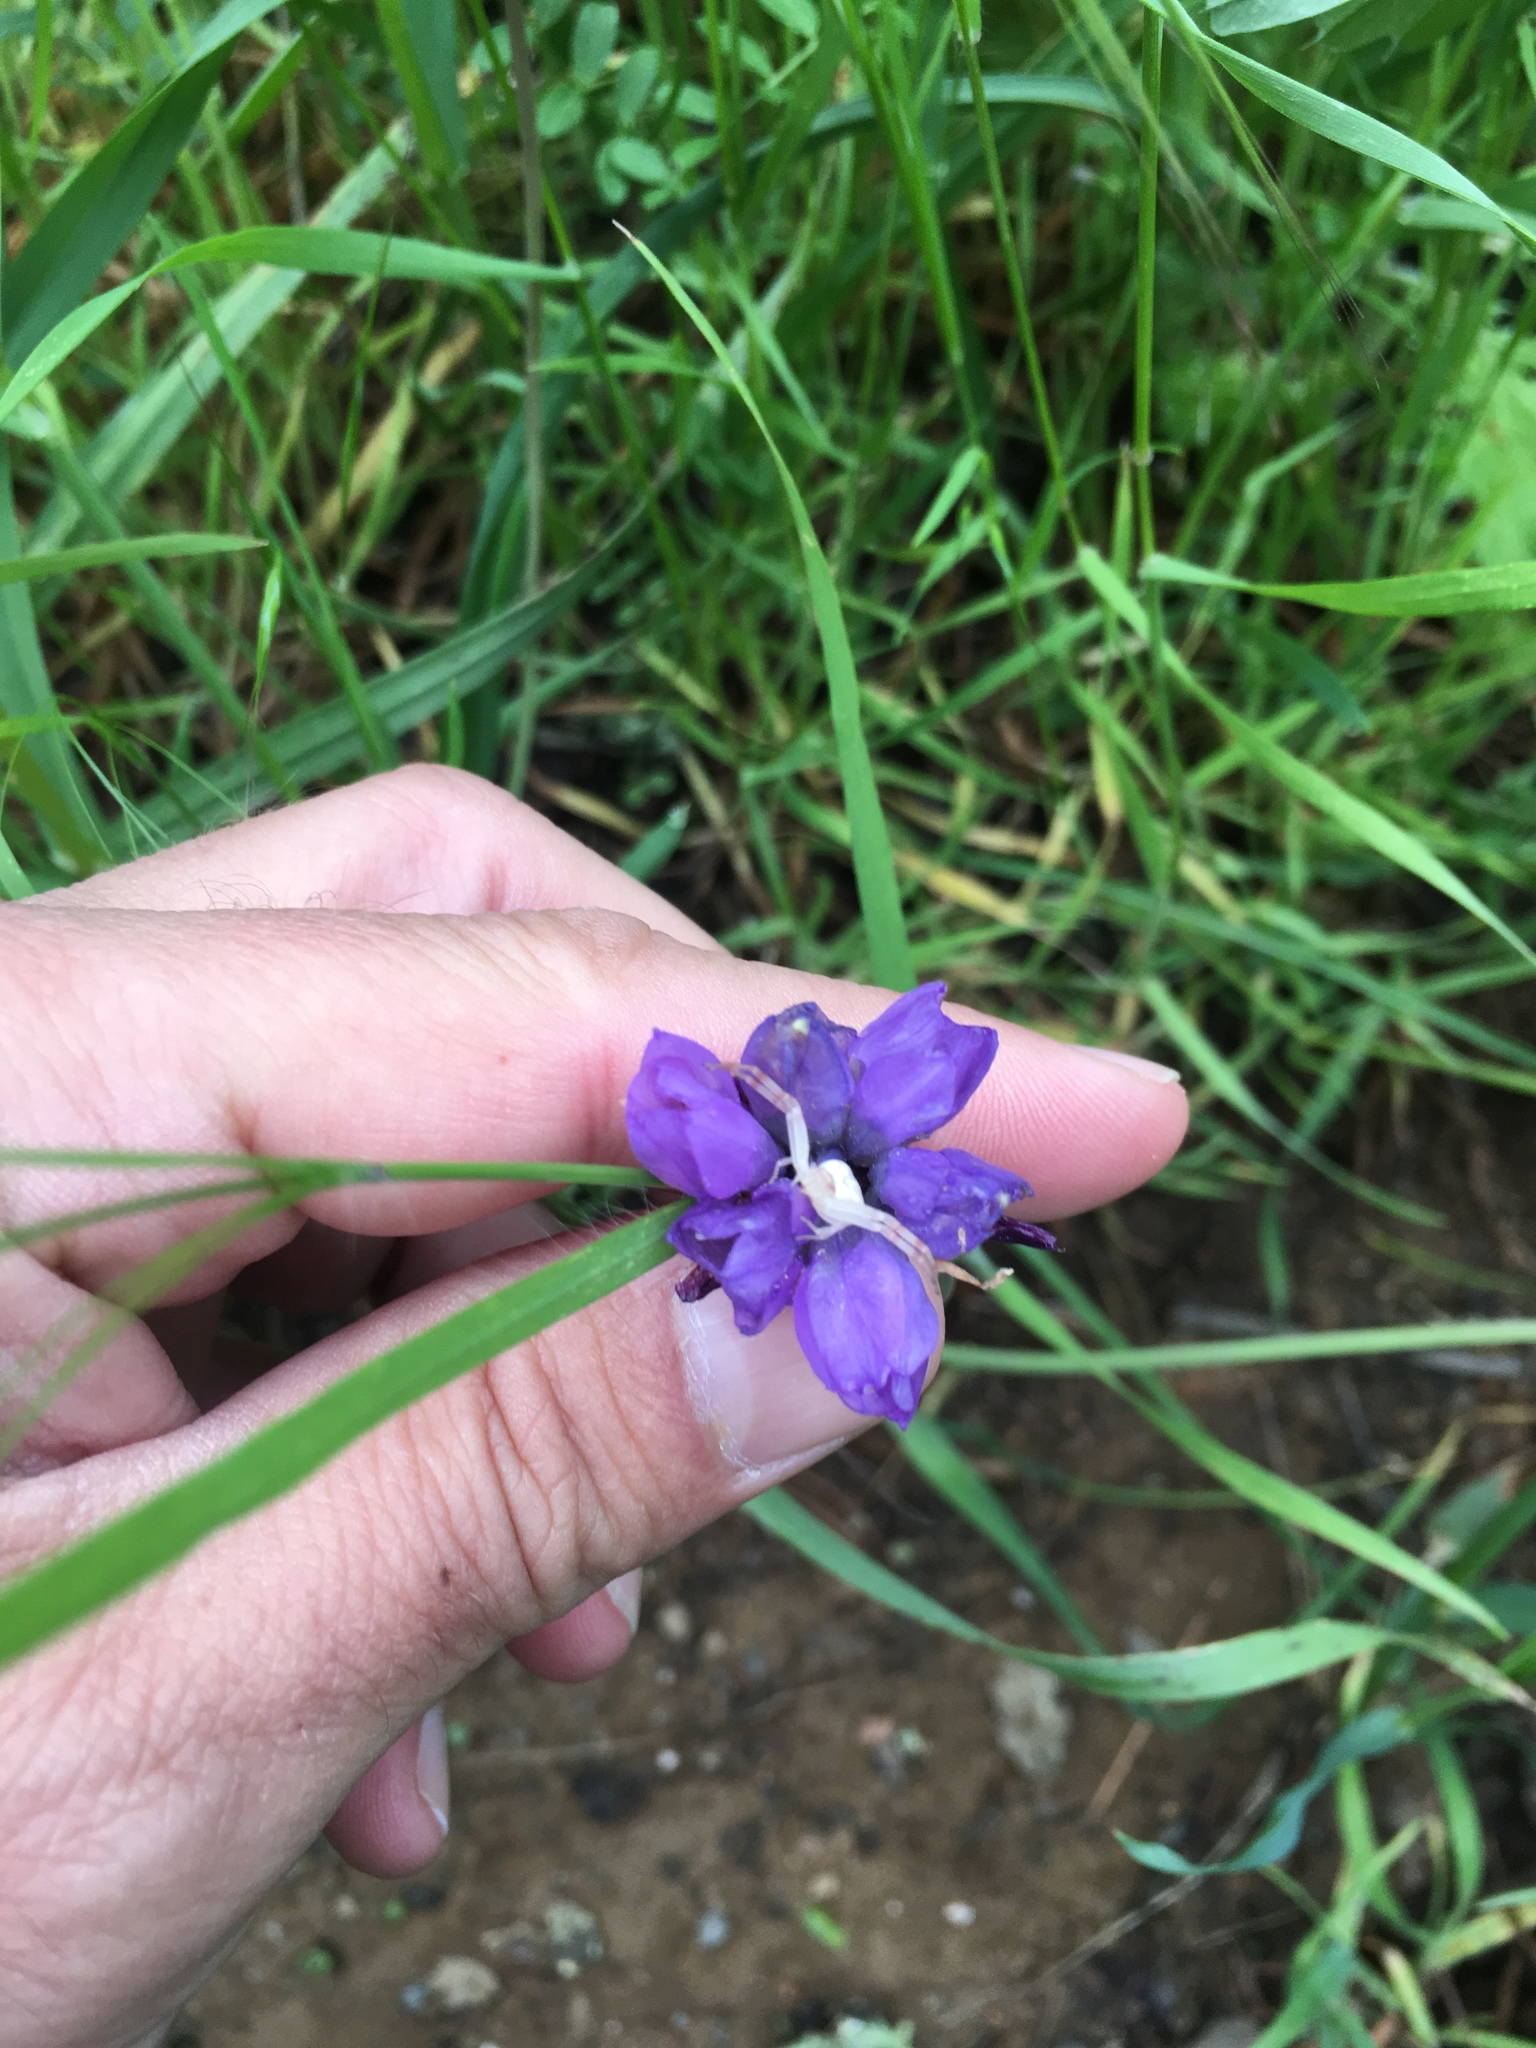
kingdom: Plantae
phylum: Tracheophyta
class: Liliopsida
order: Asparagales
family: Asparagaceae
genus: Dipterostemon
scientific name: Dipterostemon capitatus
